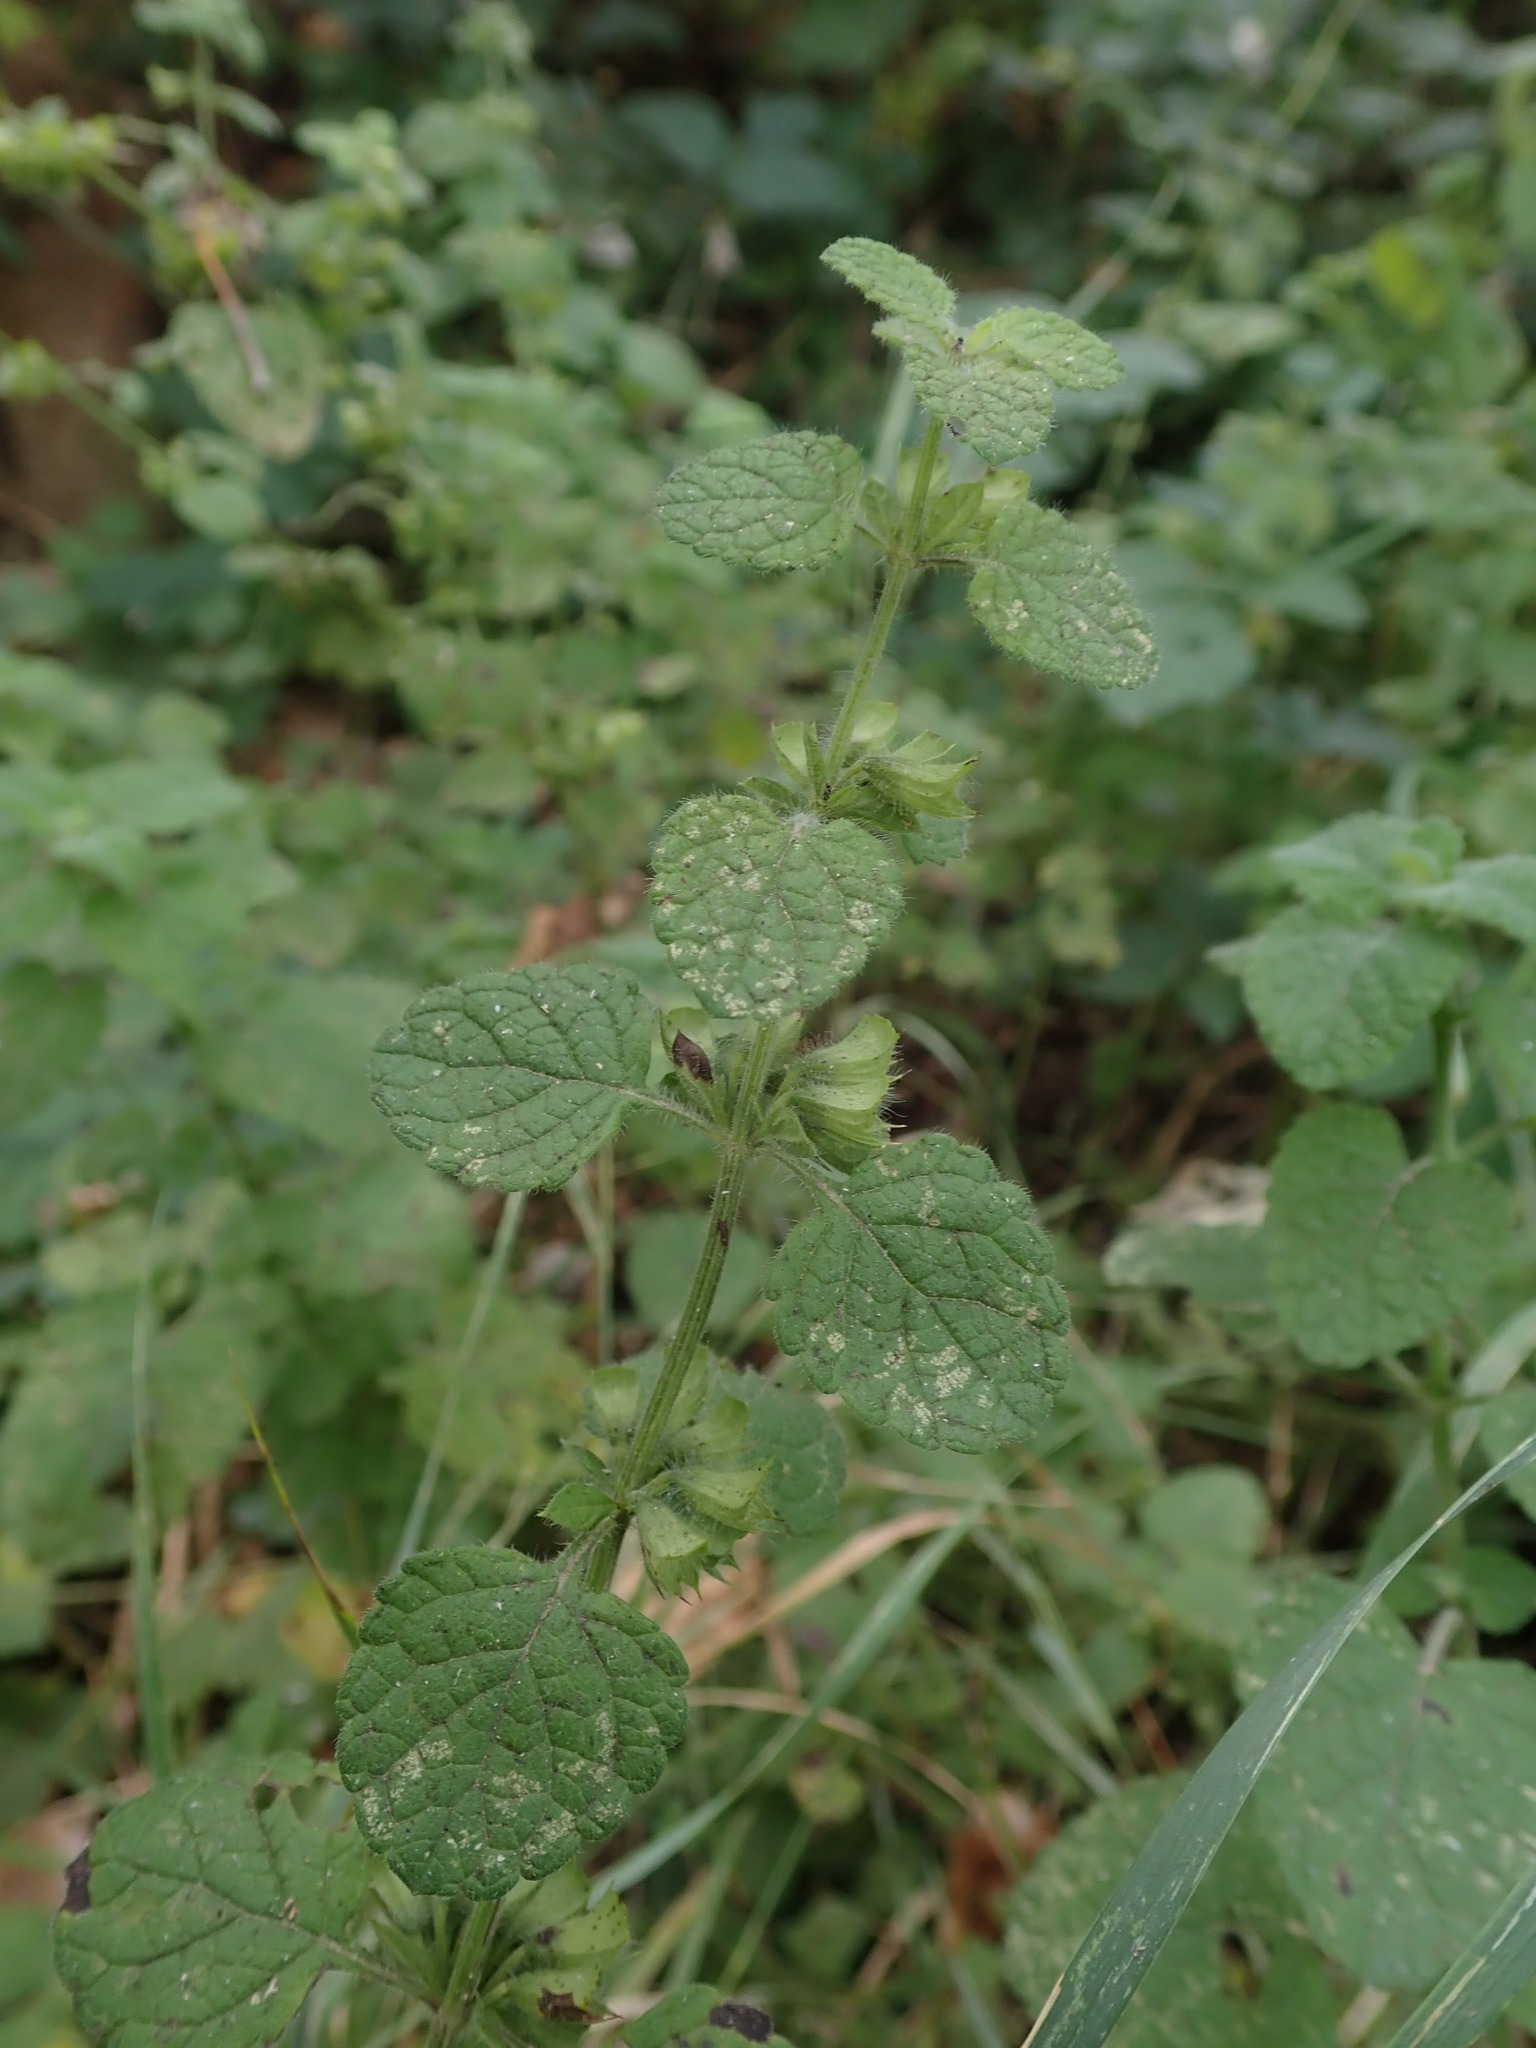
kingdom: Plantae
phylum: Tracheophyta
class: Magnoliopsida
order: Lamiales
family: Lamiaceae
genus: Melissa
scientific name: Melissa officinalis
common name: Balm
